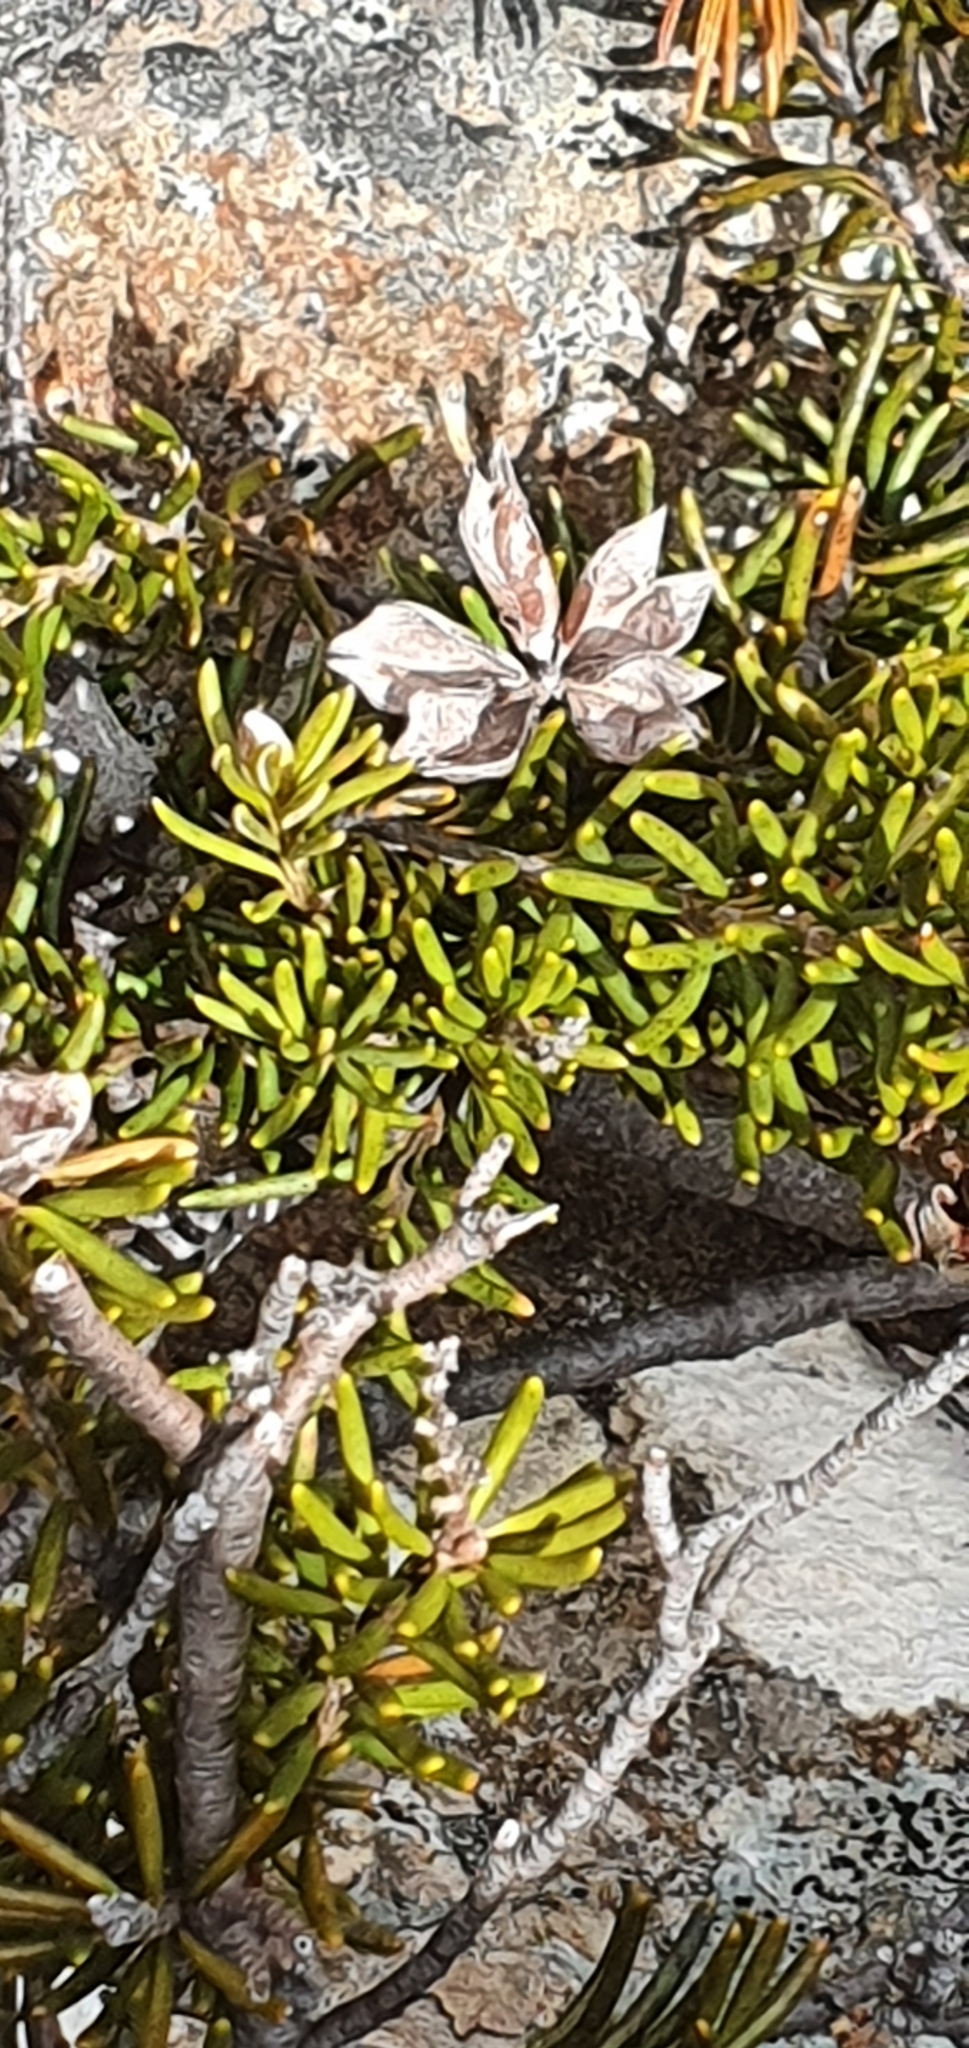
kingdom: Plantae
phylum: Tracheophyta
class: Magnoliopsida
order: Proteales
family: Proteaceae
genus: Orites
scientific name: Orites revolutus
